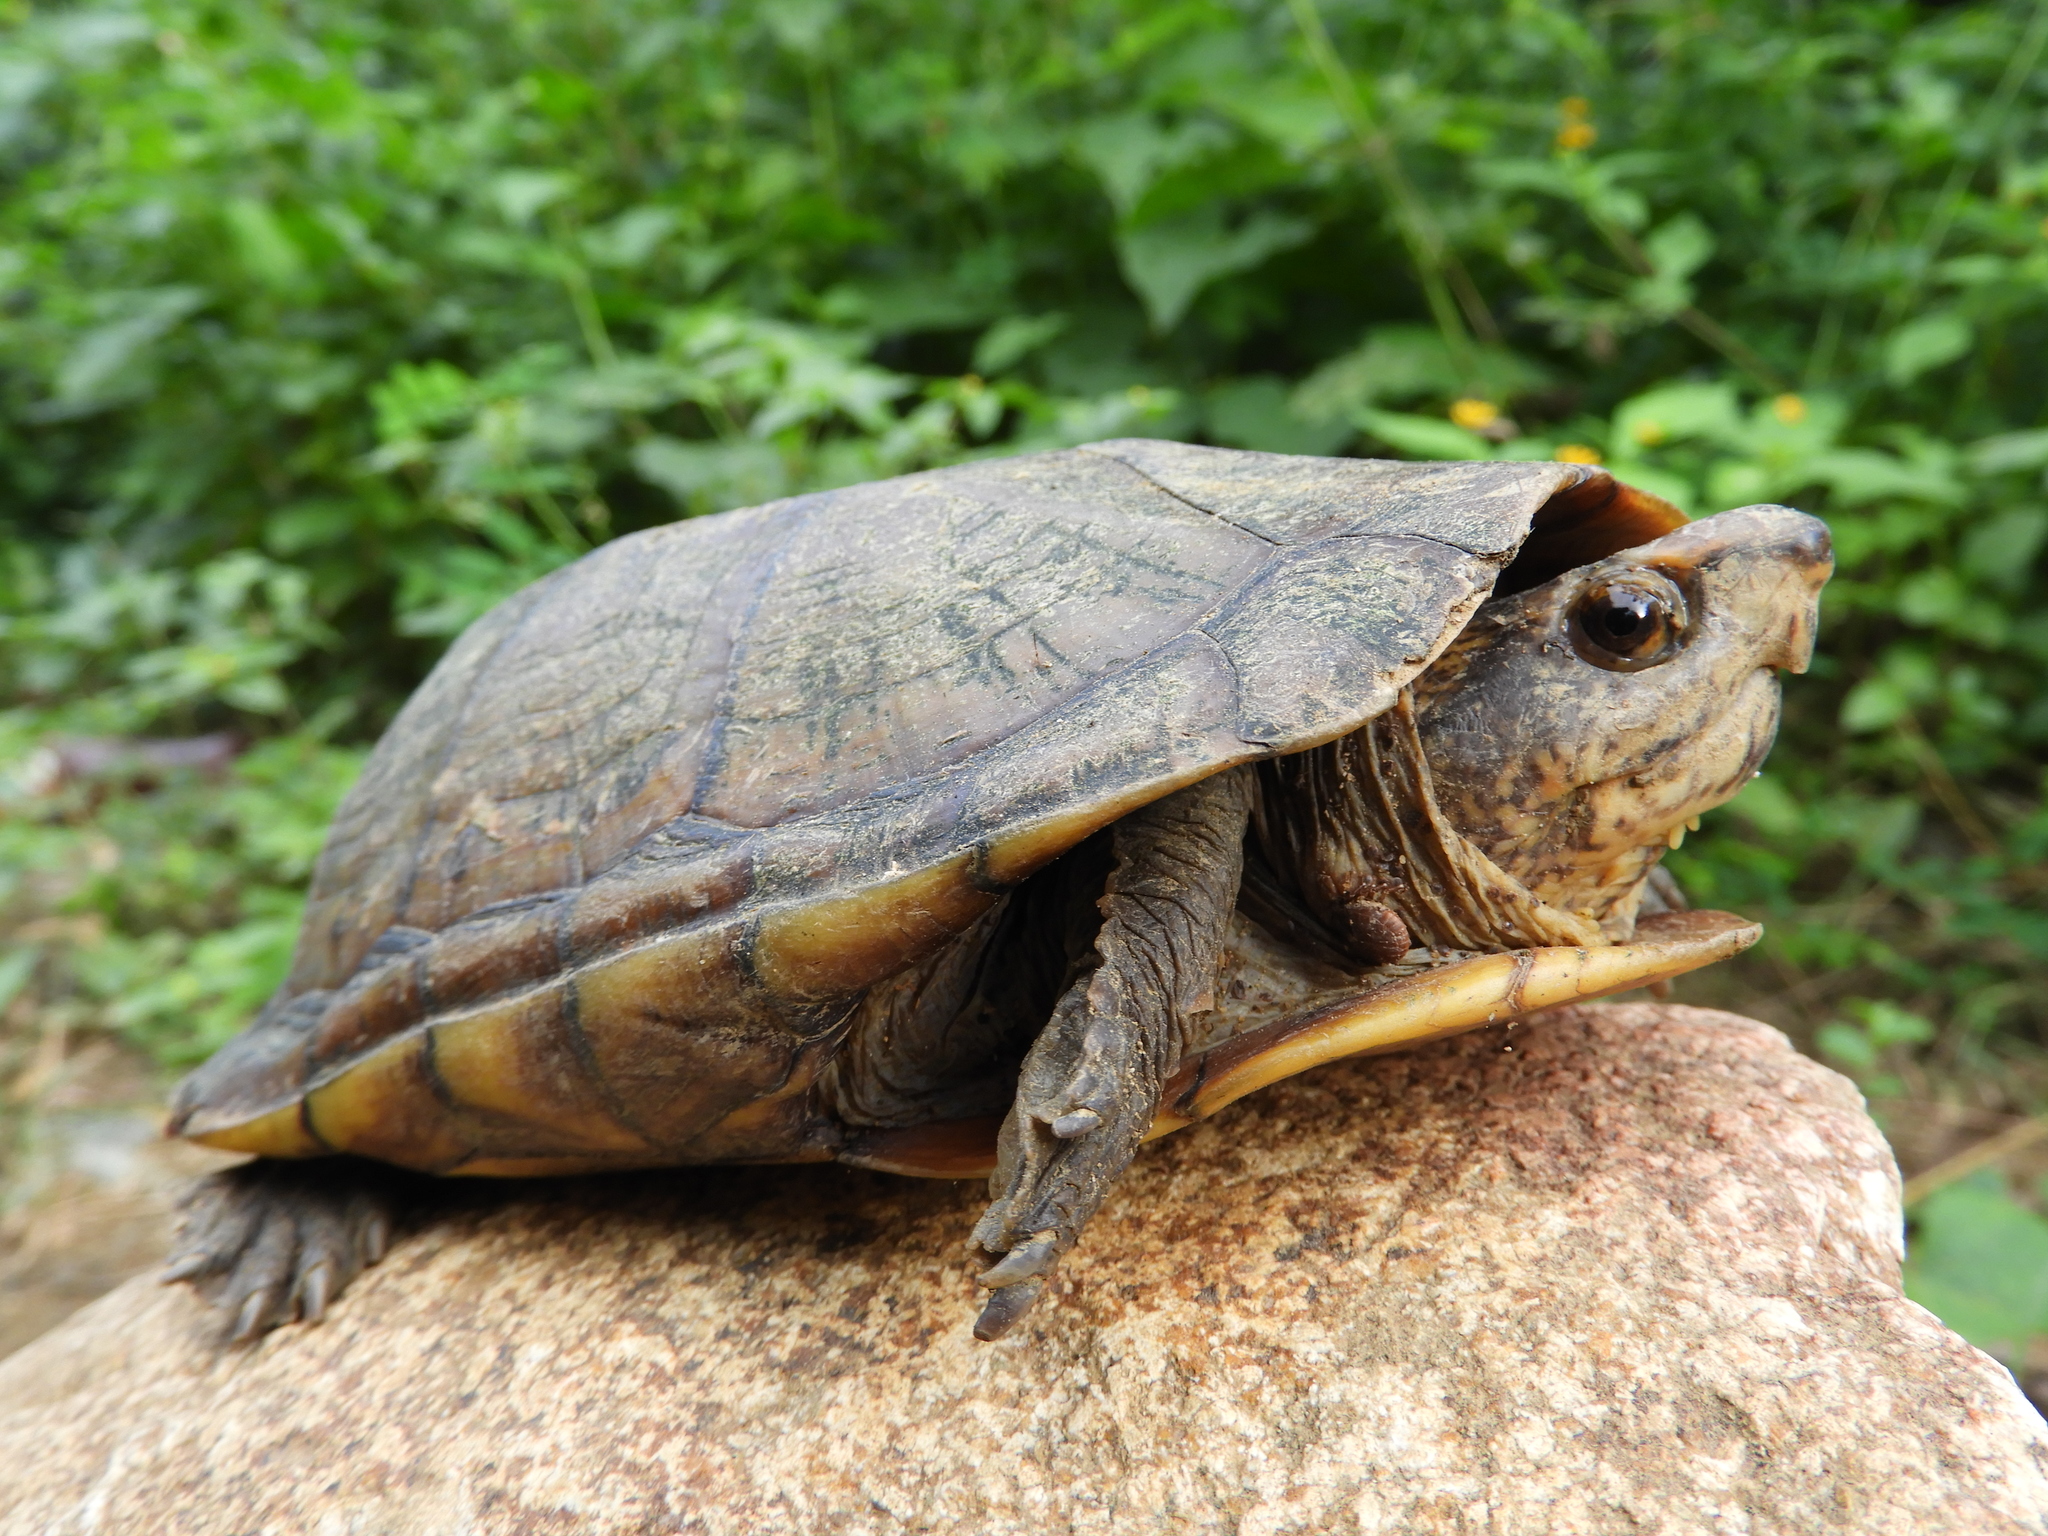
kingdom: Animalia
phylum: Chordata
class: Testudines
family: Kinosternidae
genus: Kinosternon
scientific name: Kinosternon scorpioides
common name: Scorpion mud turtle
